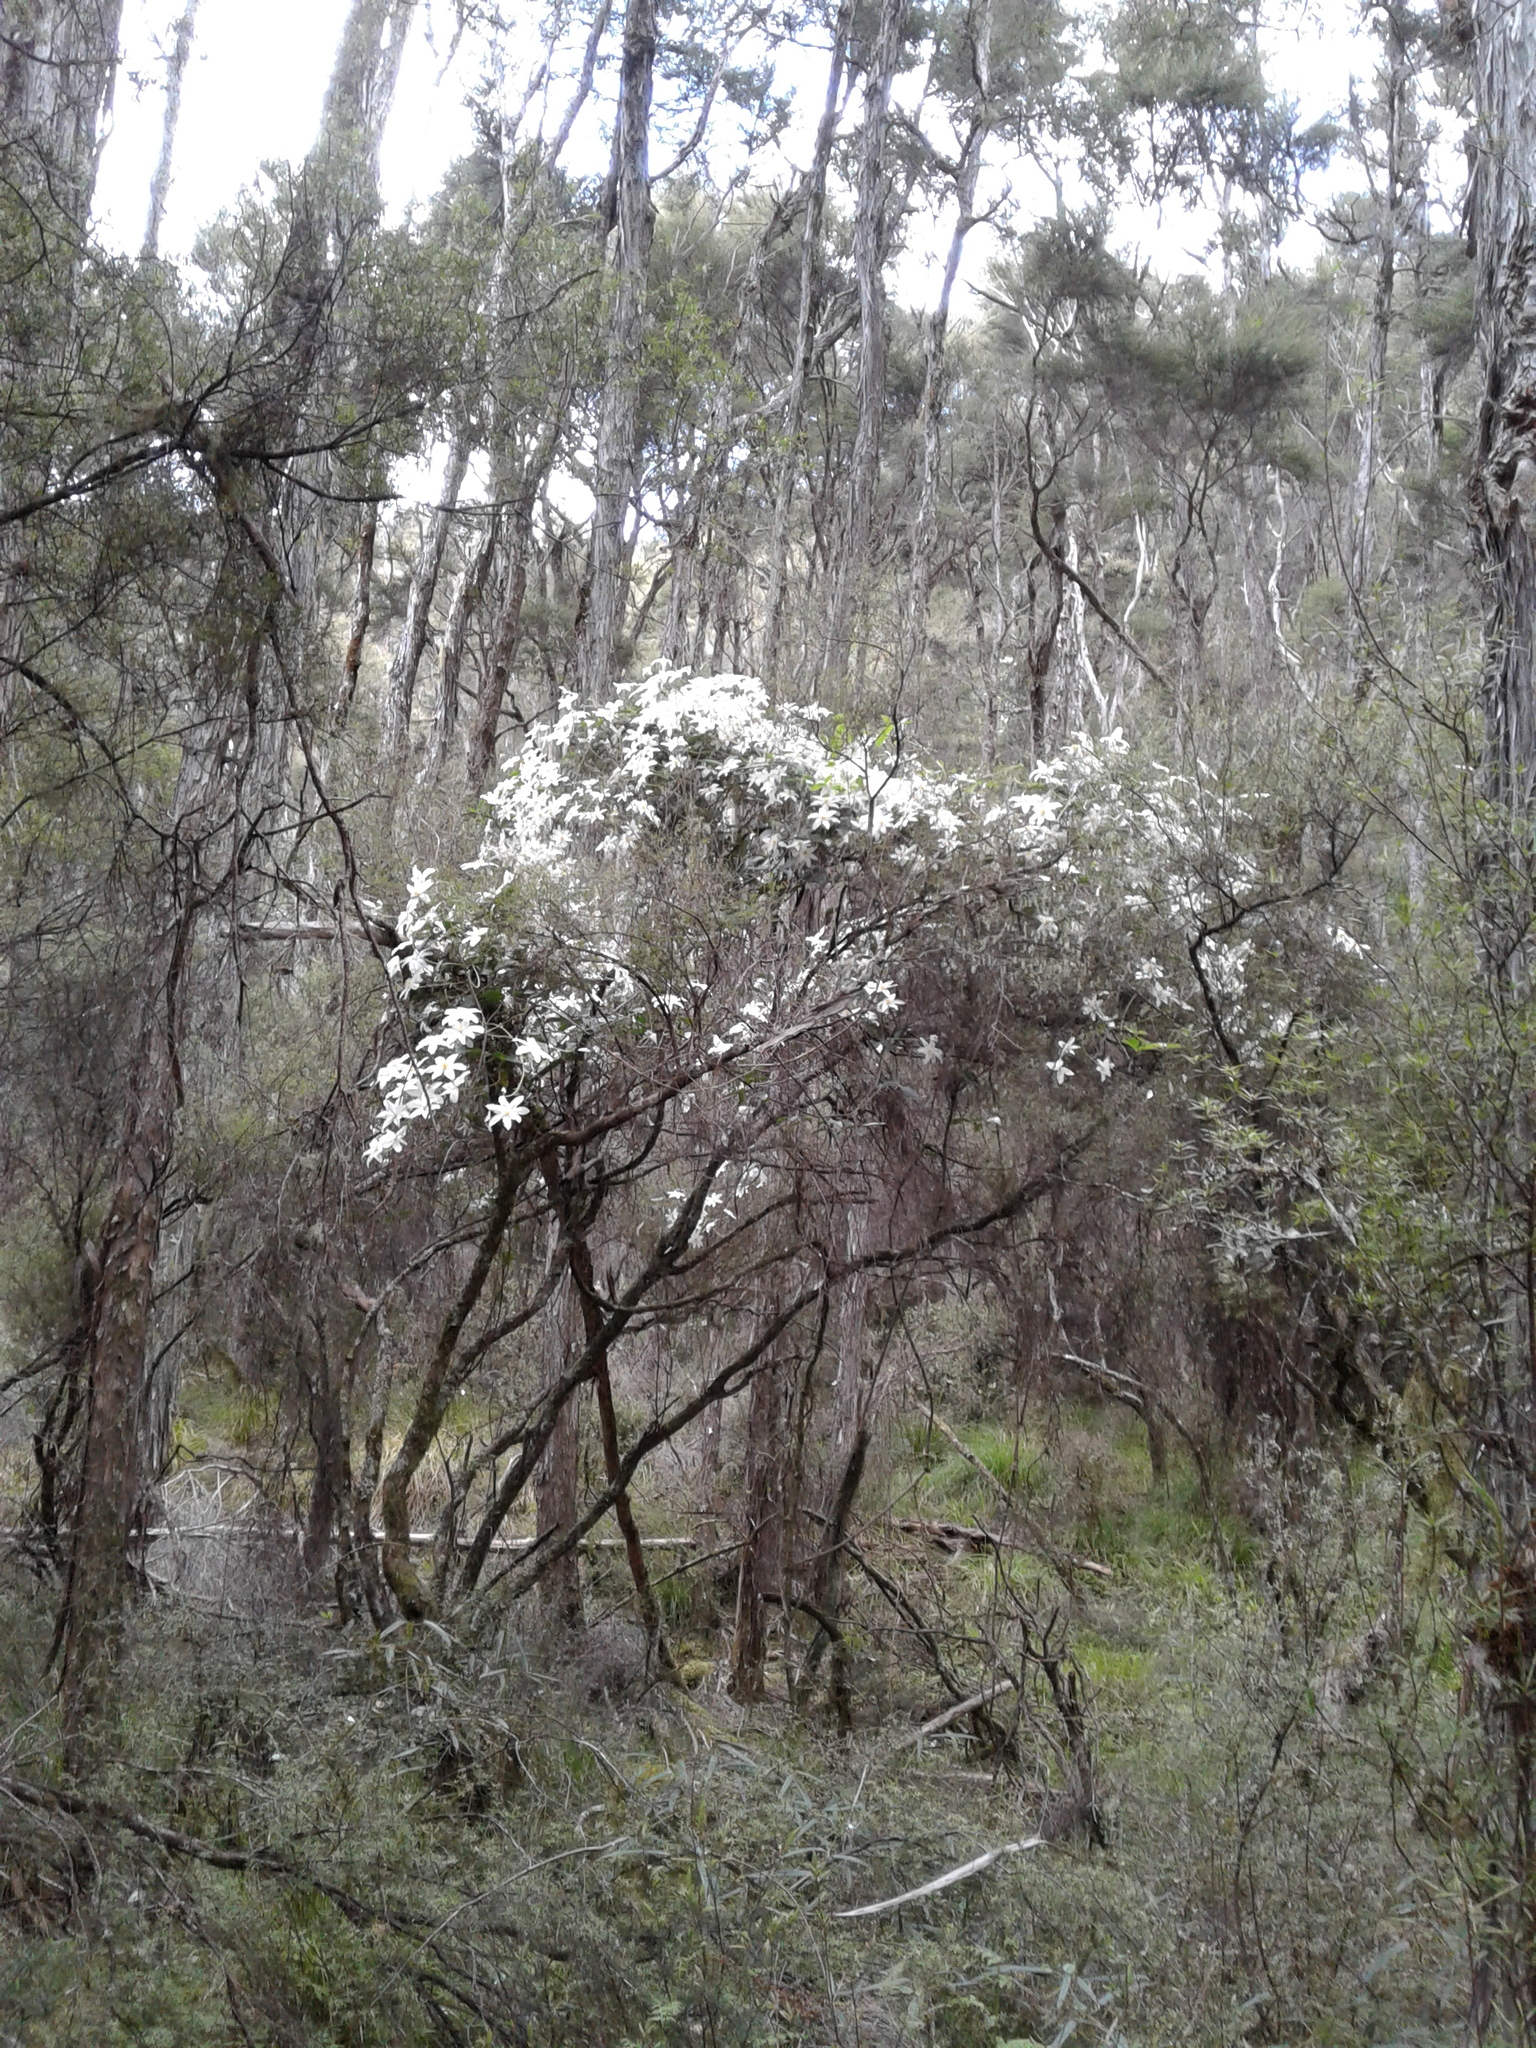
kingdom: Plantae
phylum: Tracheophyta
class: Magnoliopsida
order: Ranunculales
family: Ranunculaceae
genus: Clematis
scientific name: Clematis paniculata
